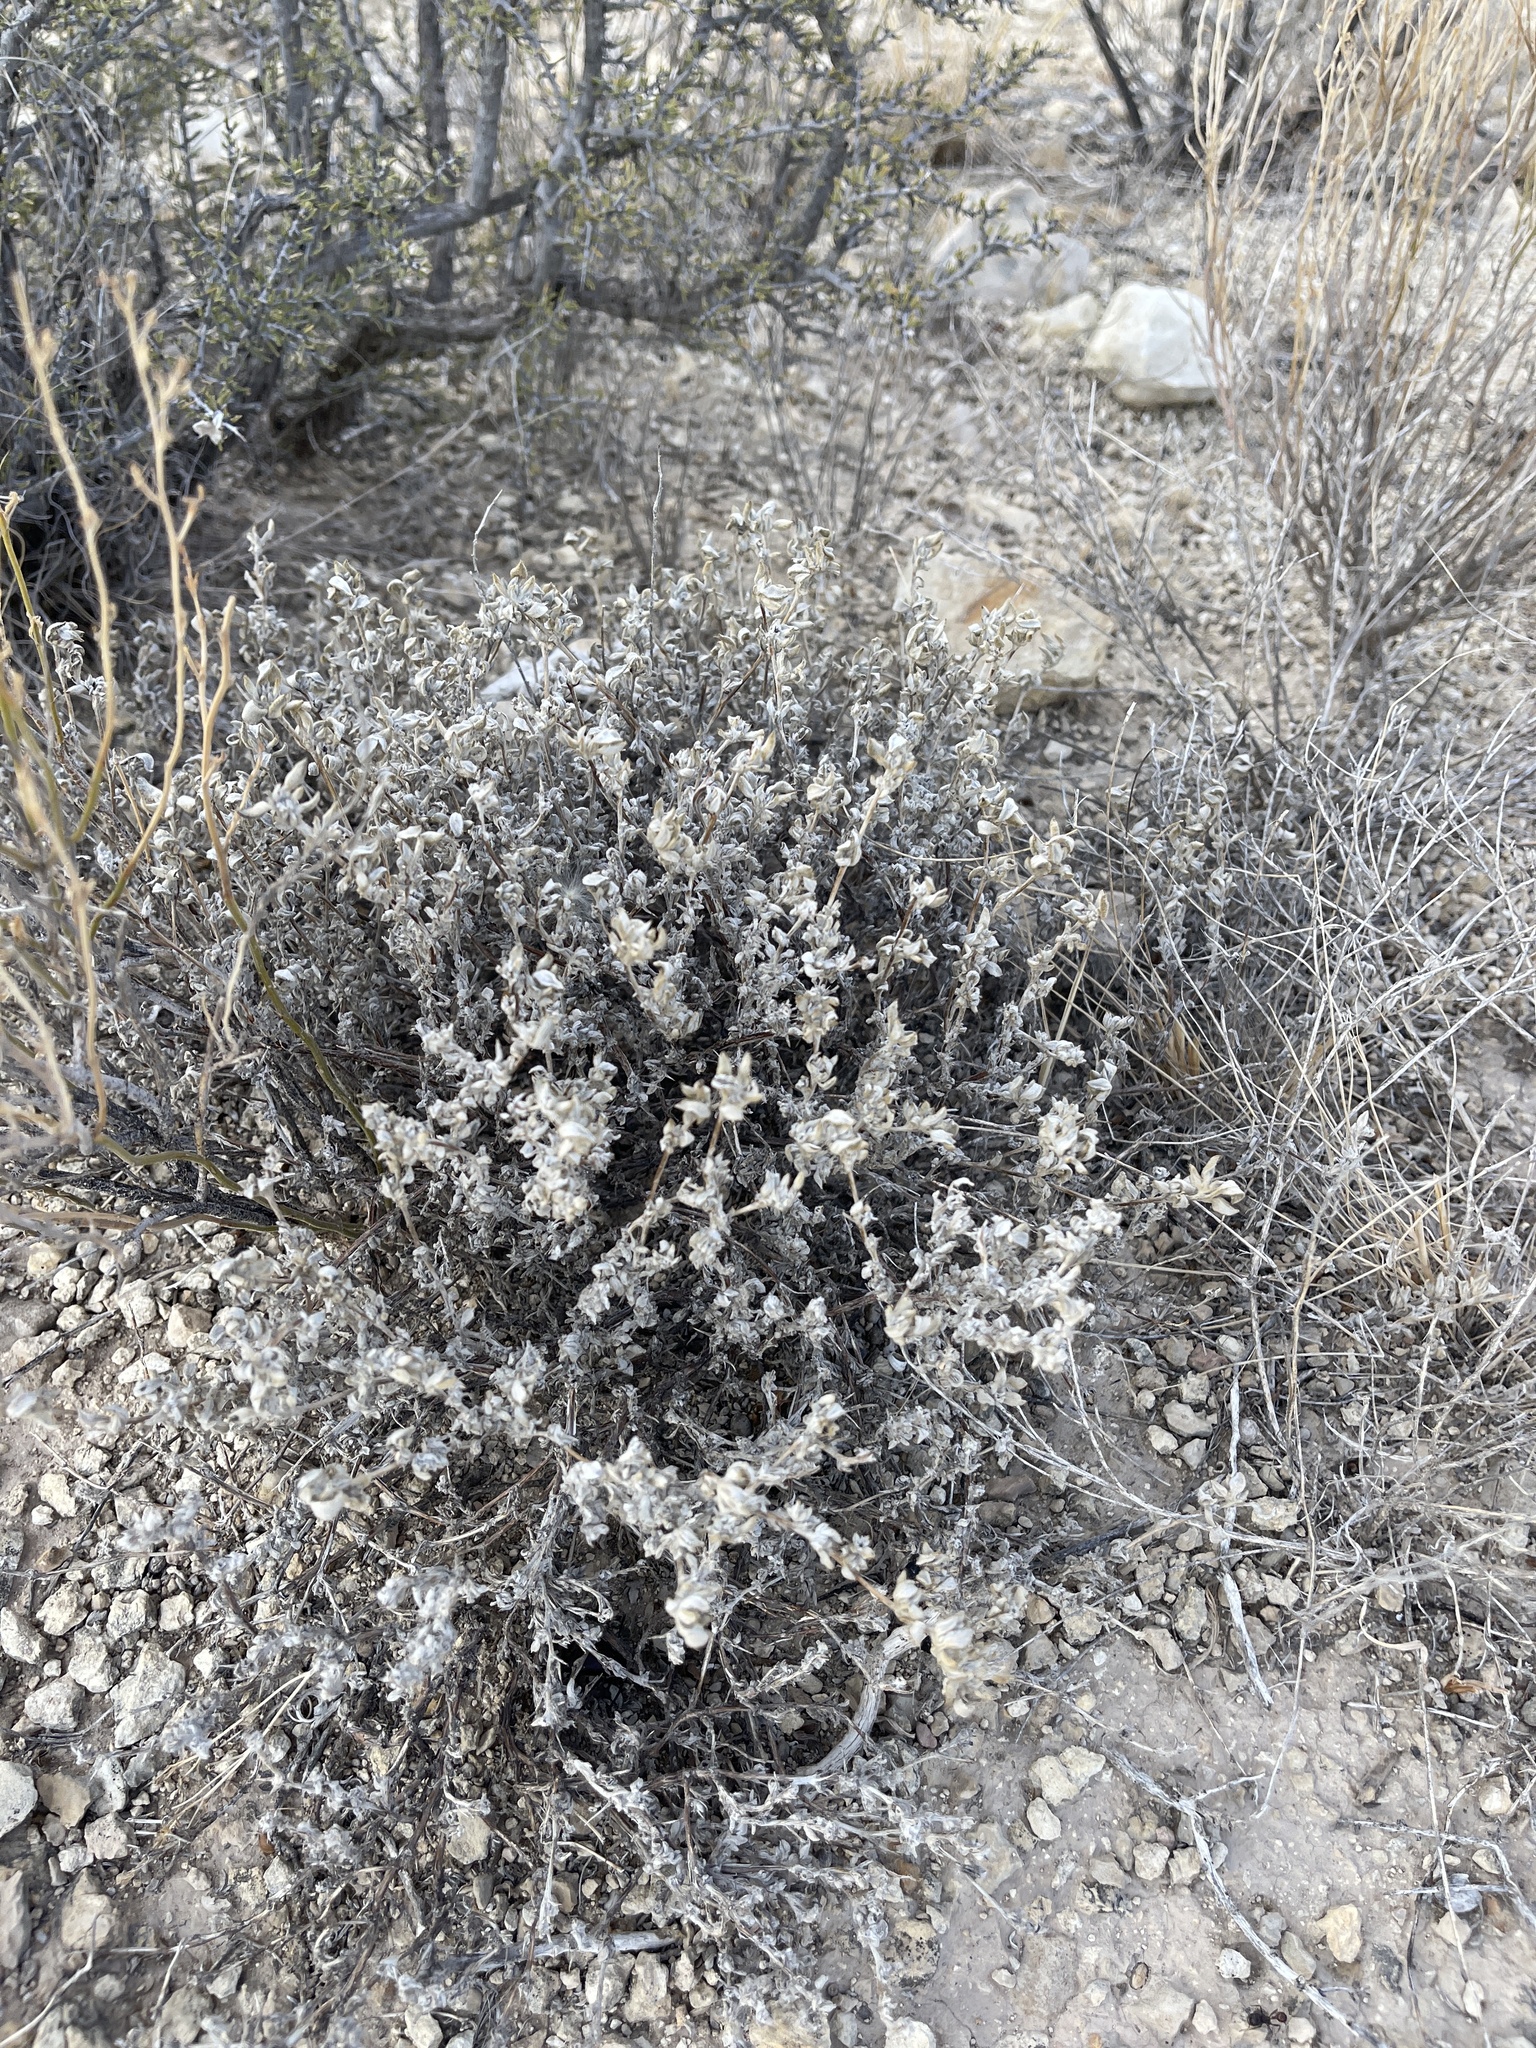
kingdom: Plantae
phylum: Tracheophyta
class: Magnoliopsida
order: Boraginales
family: Ehretiaceae
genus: Tiquilia
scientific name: Tiquilia canescens
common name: Hairy tiquilia
